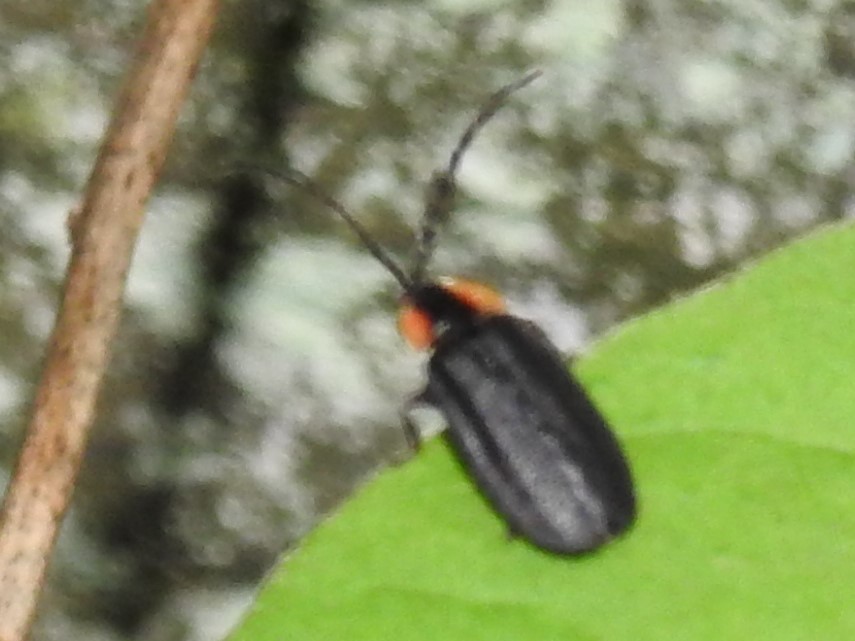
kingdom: Animalia
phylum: Arthropoda
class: Insecta
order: Coleoptera
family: Lampyridae
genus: Lucidota
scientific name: Lucidota atra
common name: Black firefly
